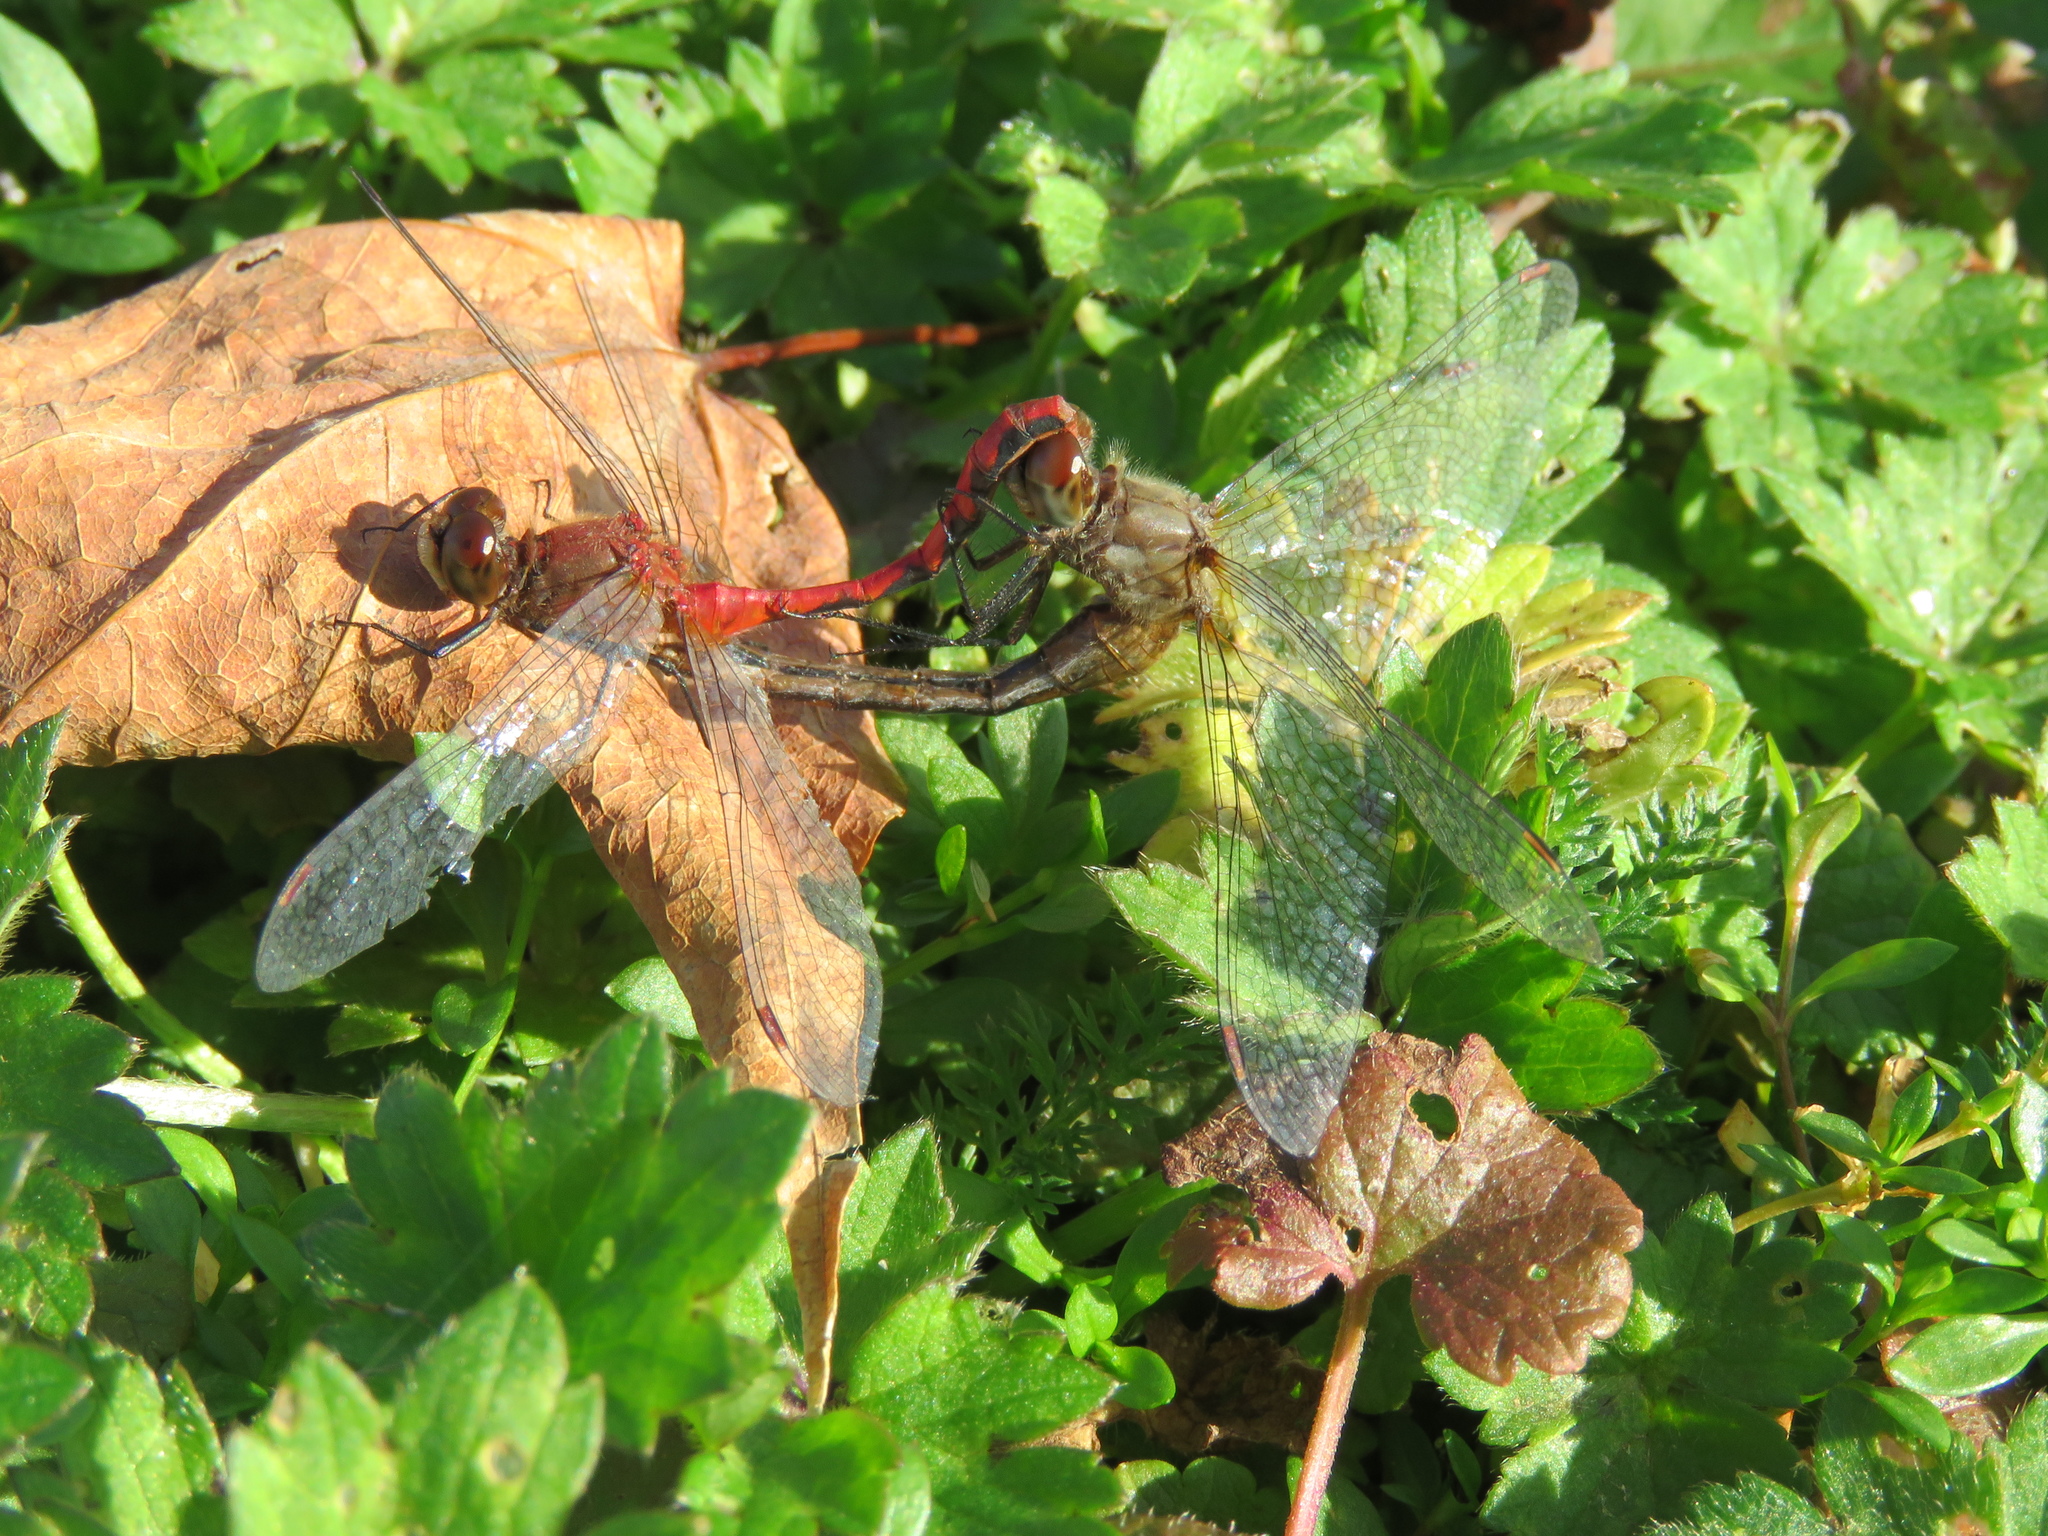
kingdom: Animalia
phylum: Arthropoda
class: Insecta
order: Odonata
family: Libellulidae
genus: Sympetrum
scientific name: Sympetrum obtrusum
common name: White-faced meadowhawk
